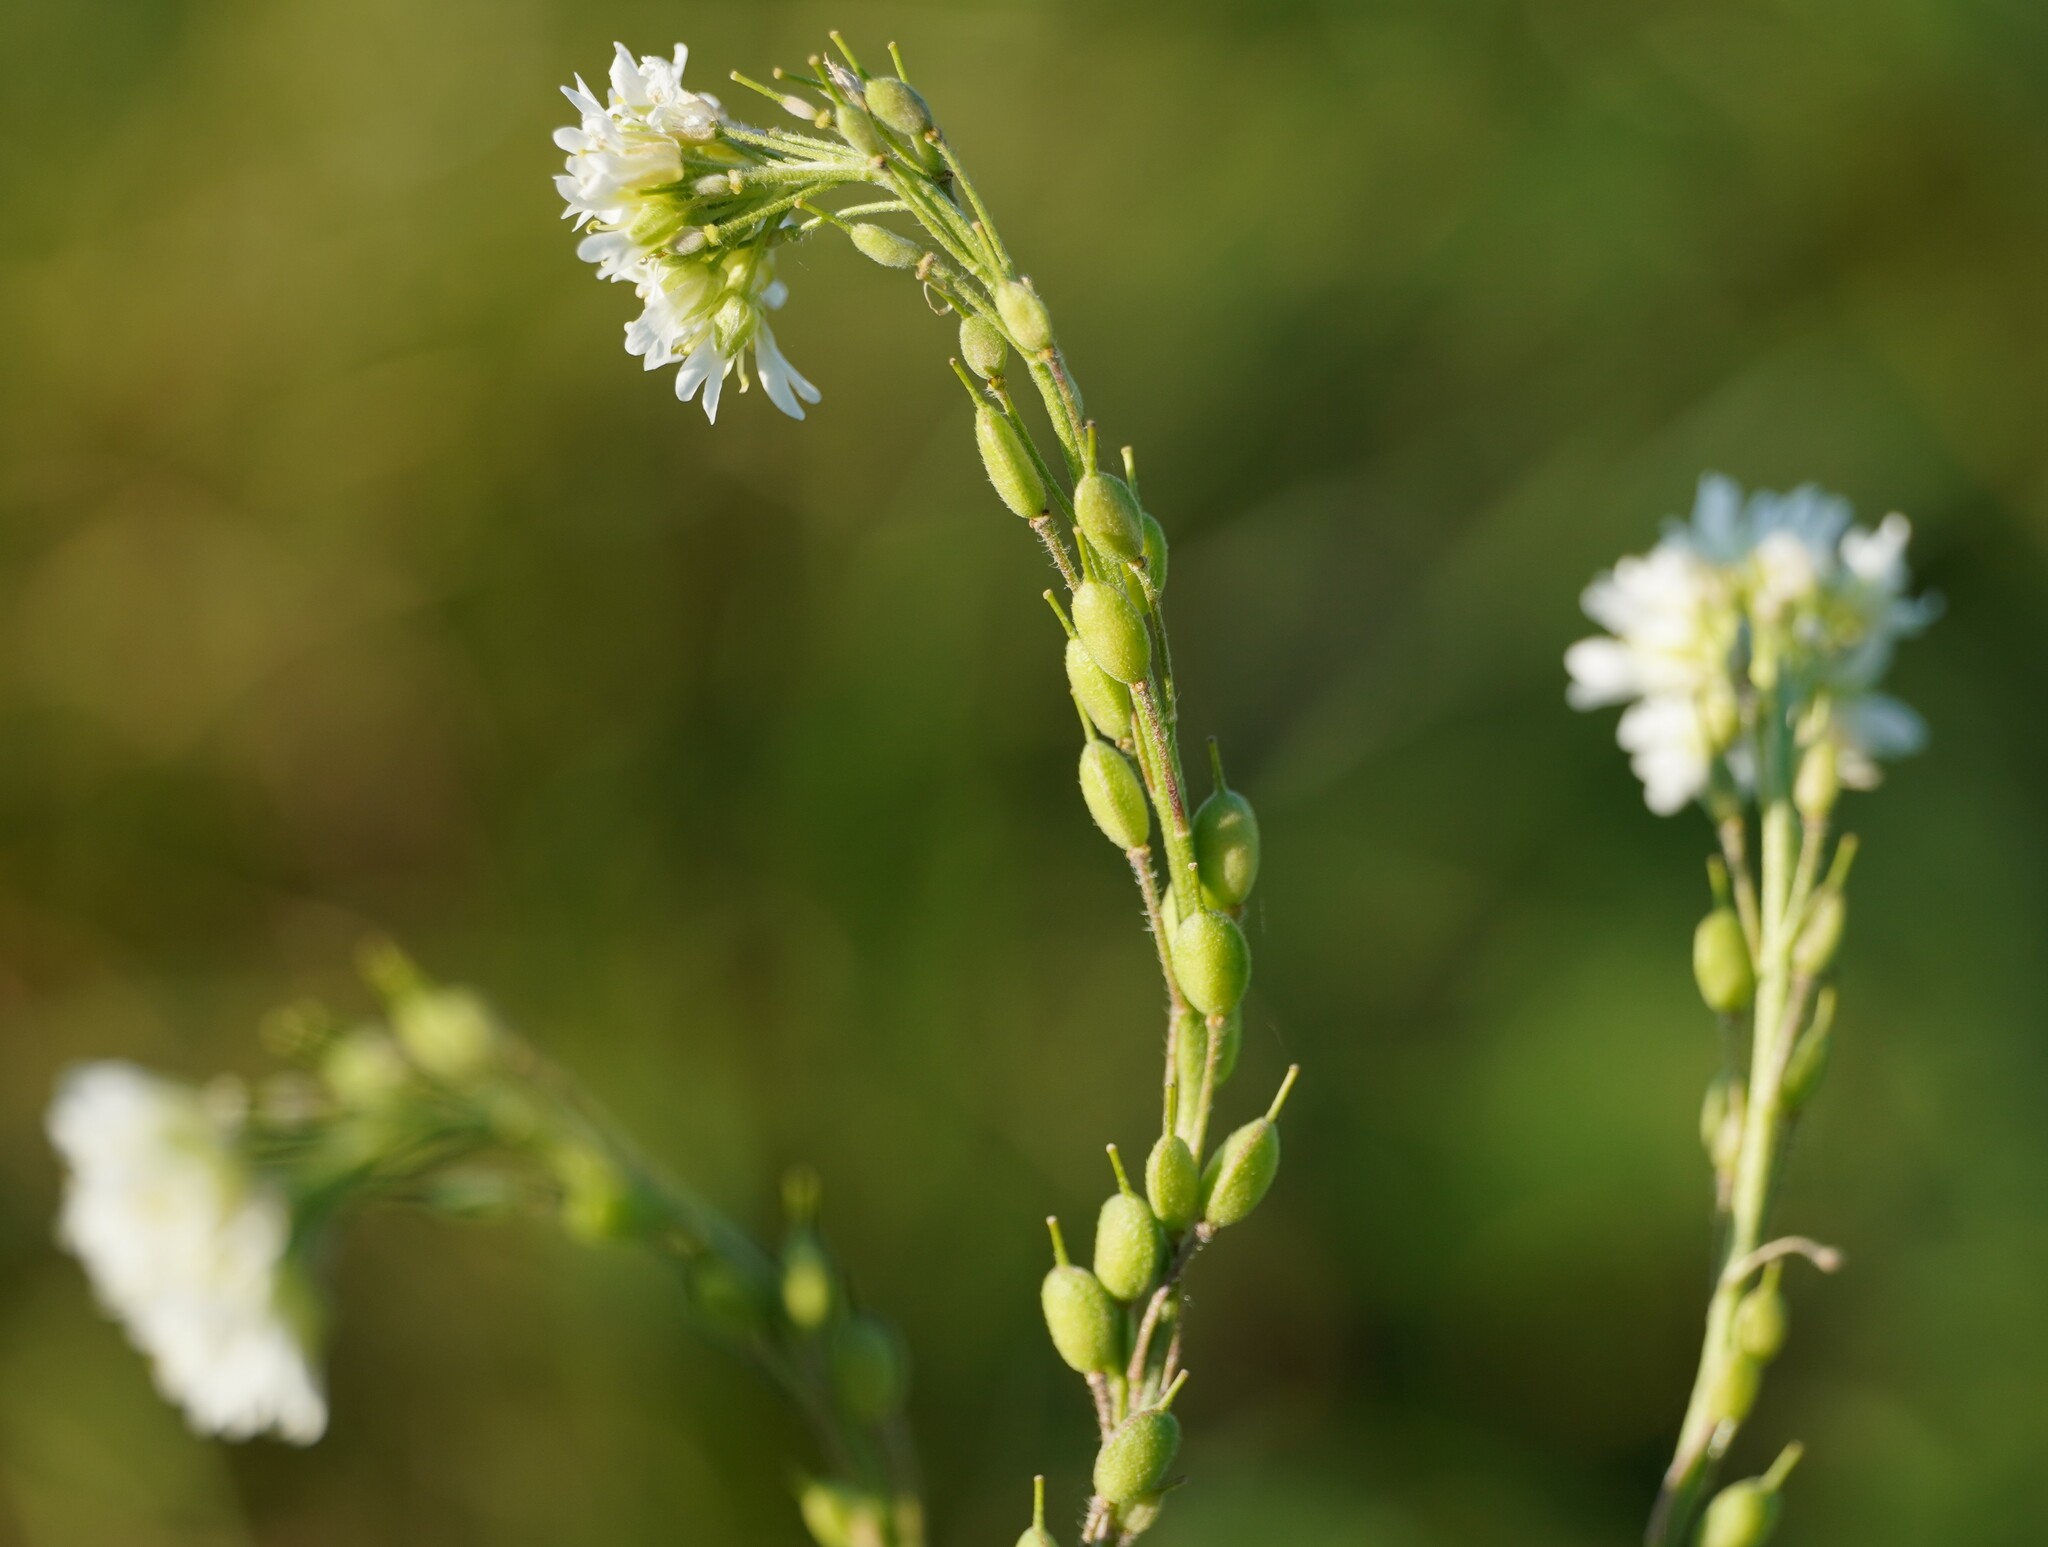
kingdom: Plantae
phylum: Tracheophyta
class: Magnoliopsida
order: Brassicales
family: Brassicaceae
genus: Berteroa
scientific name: Berteroa incana
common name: Hoary alison
